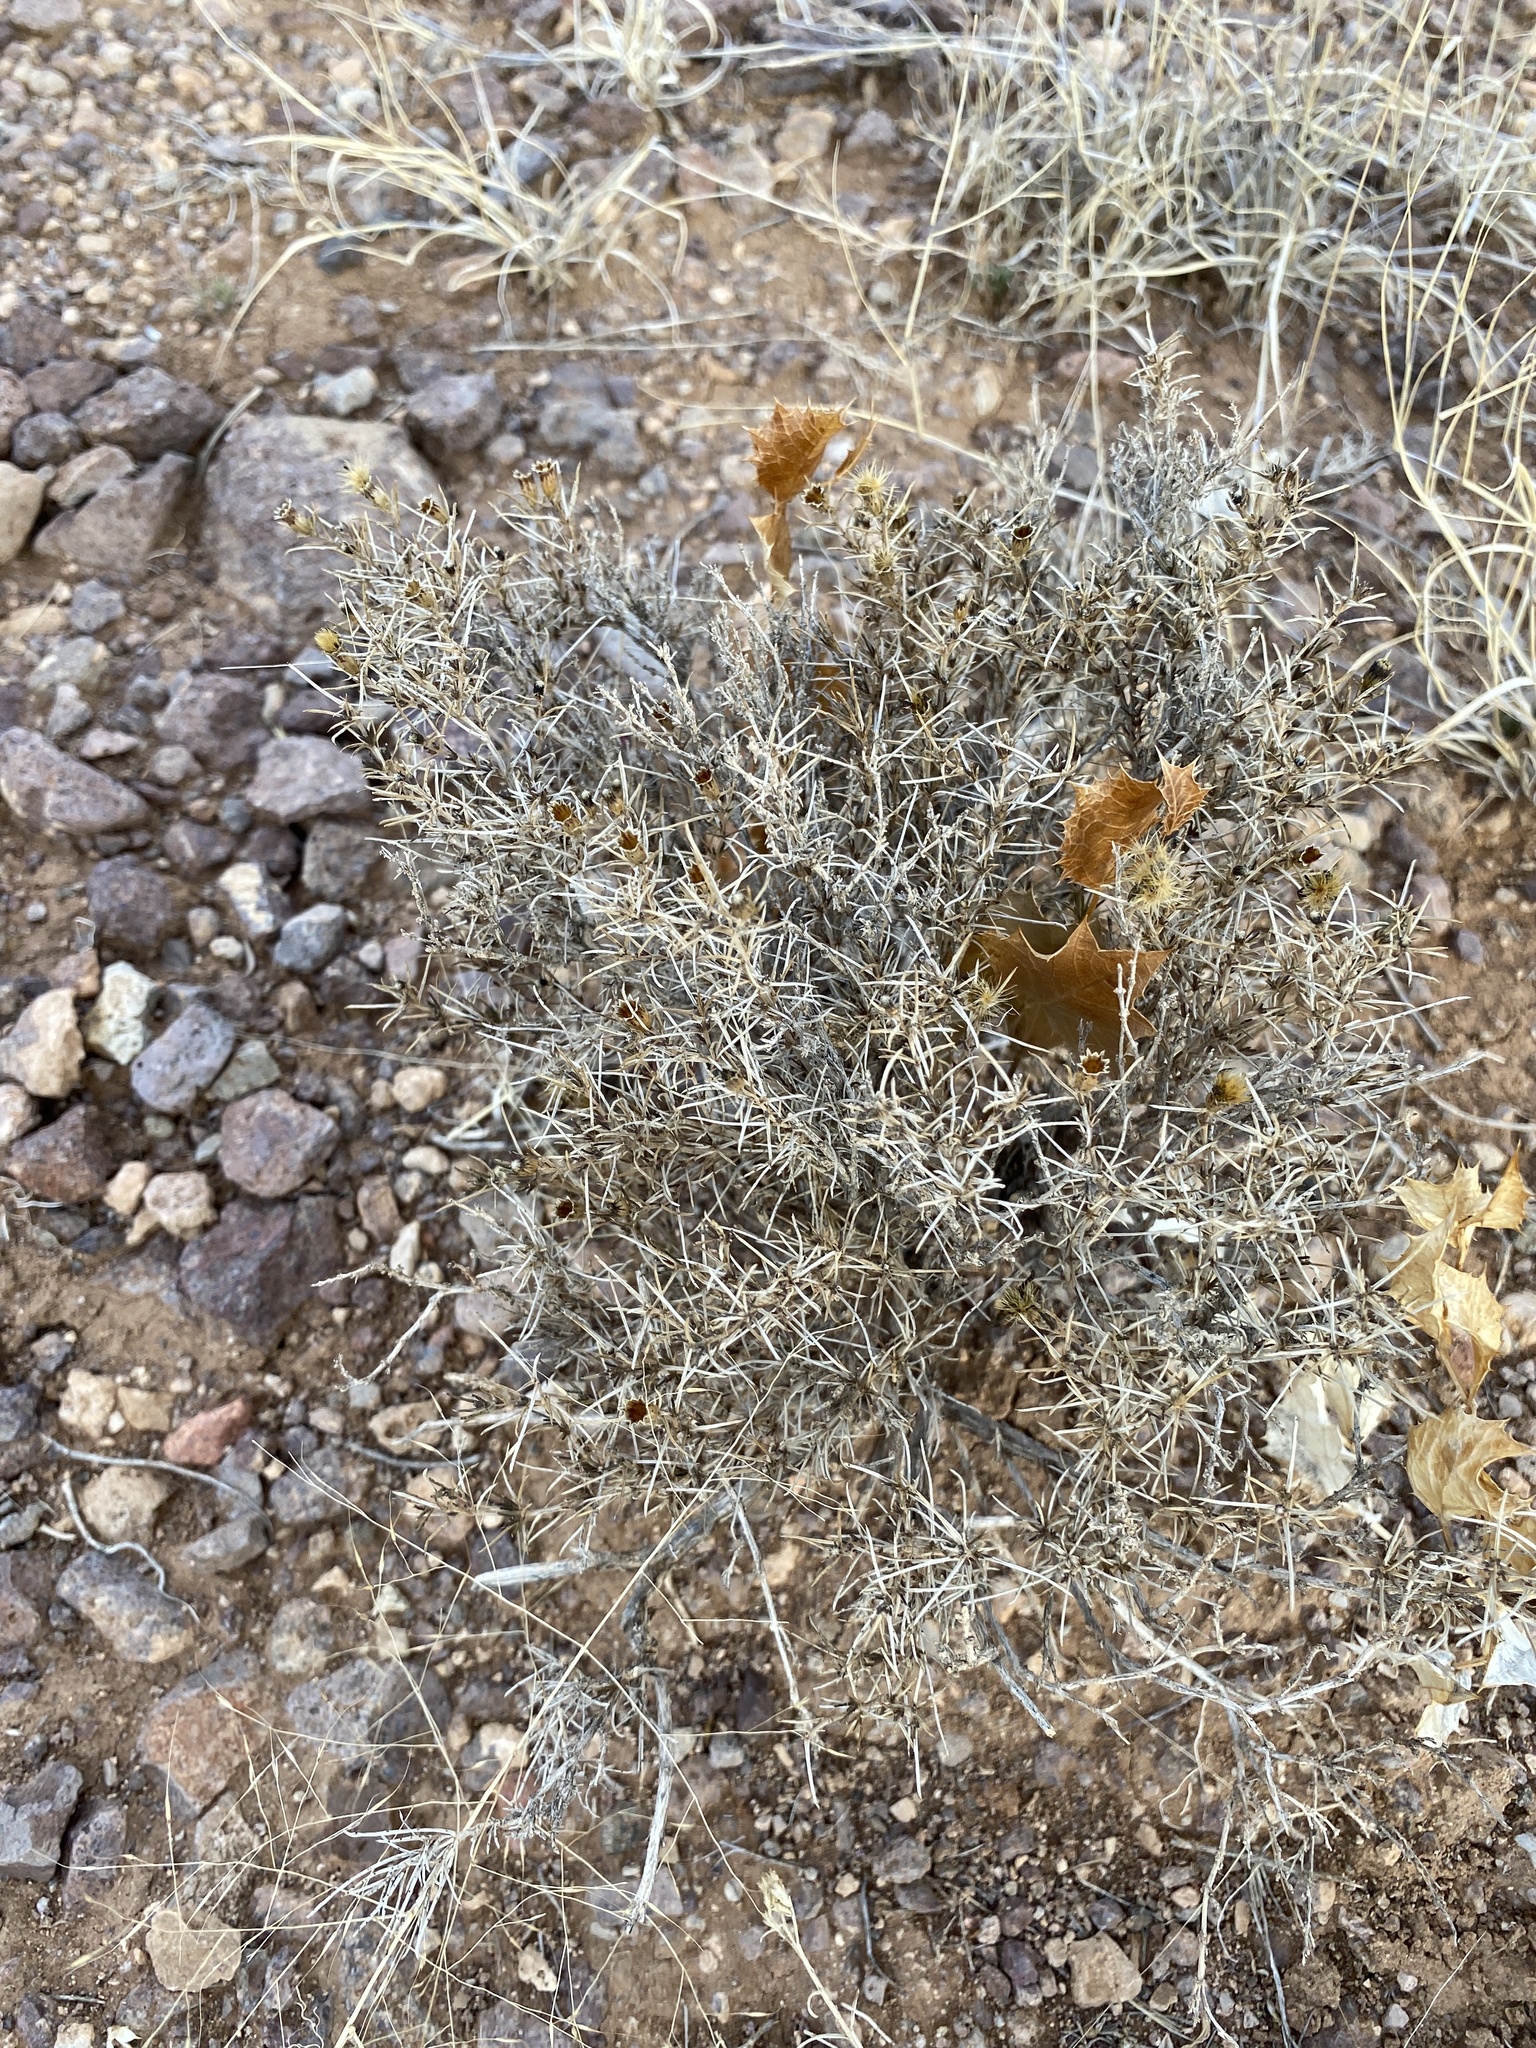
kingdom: Plantae
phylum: Tracheophyta
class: Magnoliopsida
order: Asterales
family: Asteraceae
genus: Thymophylla
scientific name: Thymophylla acerosa
